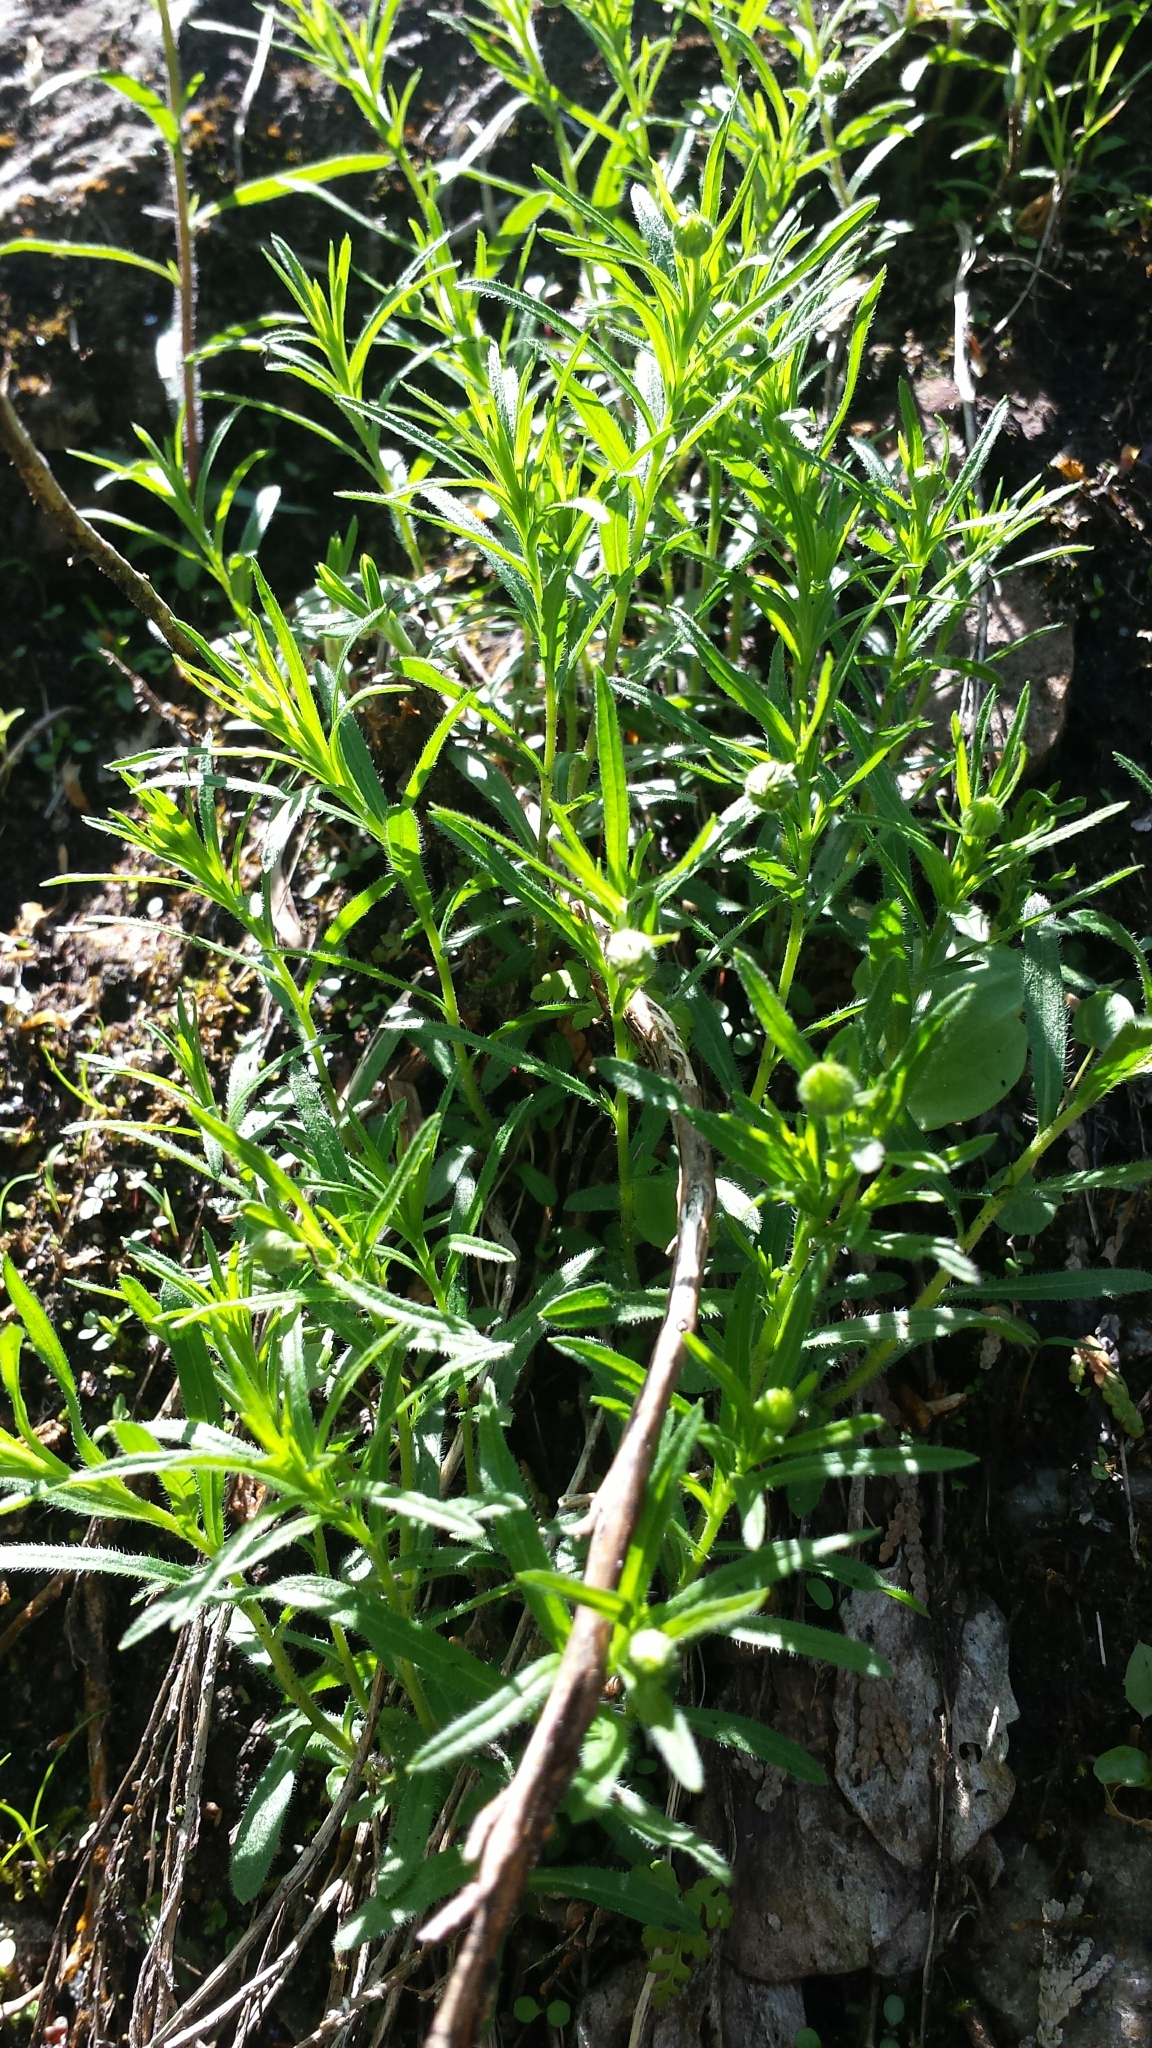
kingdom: Plantae
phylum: Tracheophyta
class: Magnoliopsida
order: Asterales
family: Asteraceae
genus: Erigeron
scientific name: Erigeron hyssopifolius
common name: Daisy fleabane
